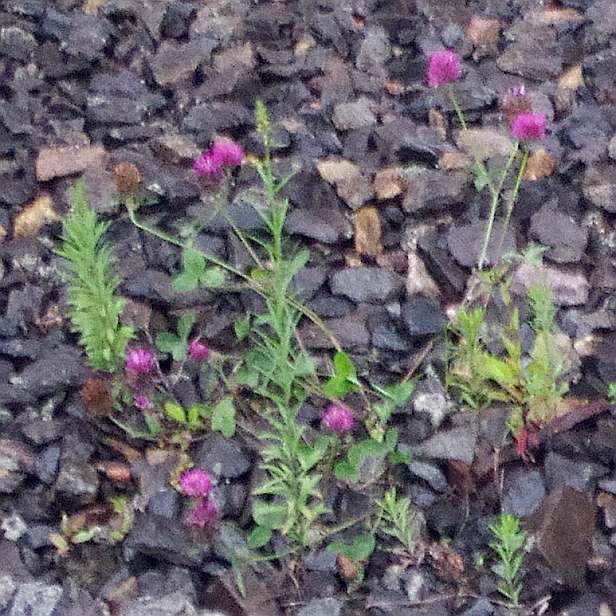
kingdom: Plantae
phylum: Tracheophyta
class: Magnoliopsida
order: Fabales
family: Fabaceae
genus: Trifolium
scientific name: Trifolium pratense
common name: Red clover
